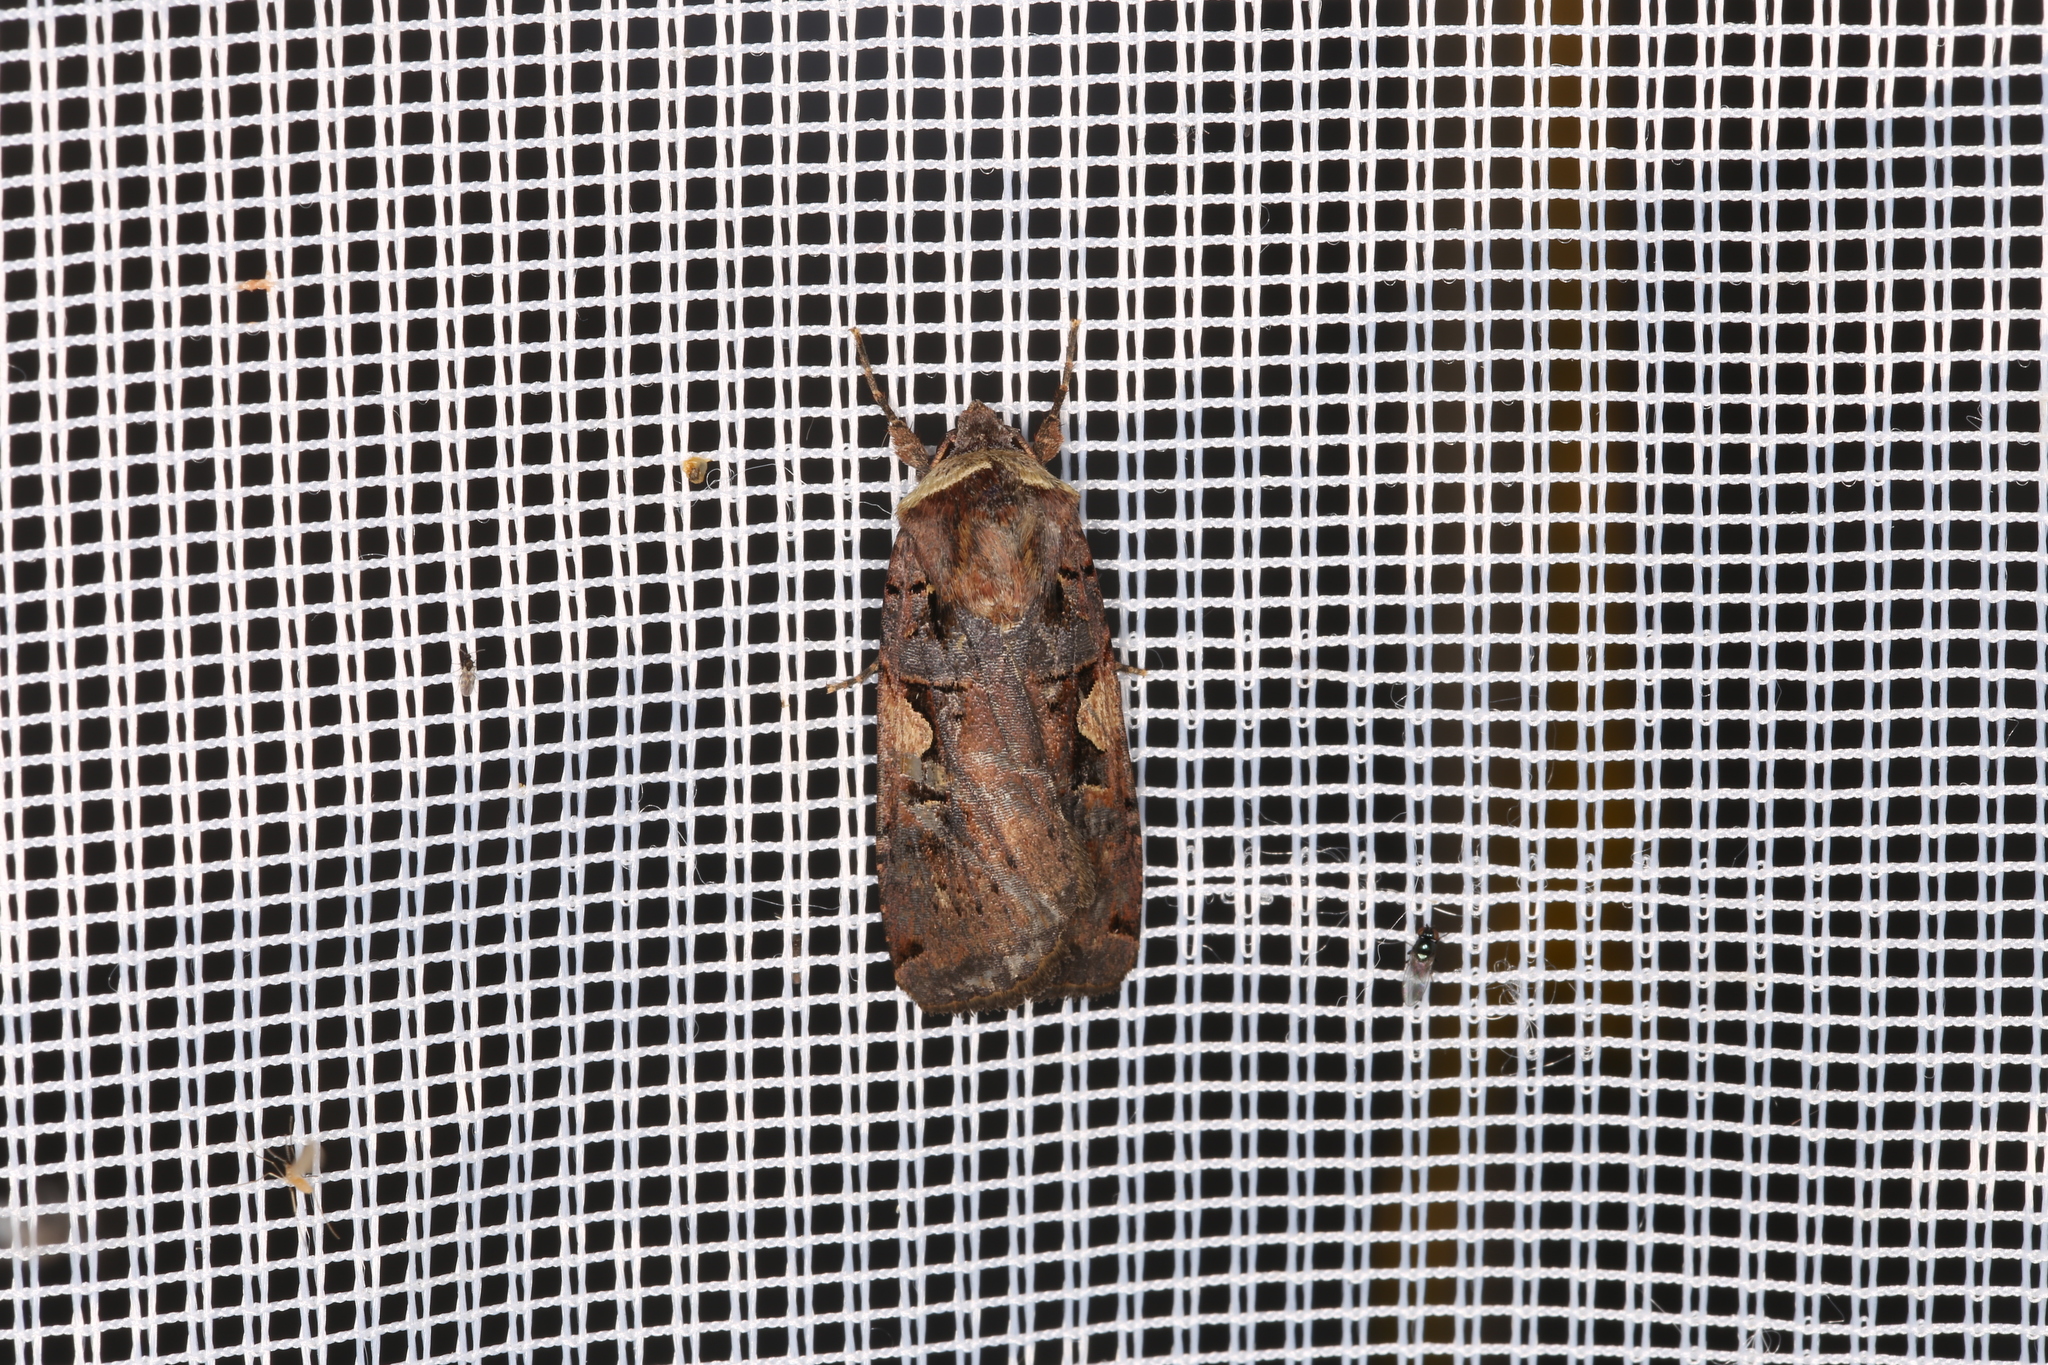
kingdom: Animalia
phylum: Arthropoda
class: Insecta
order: Lepidoptera
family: Noctuidae
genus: Xestia
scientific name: Xestia c-nigrum
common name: Setaceous hebrew character
